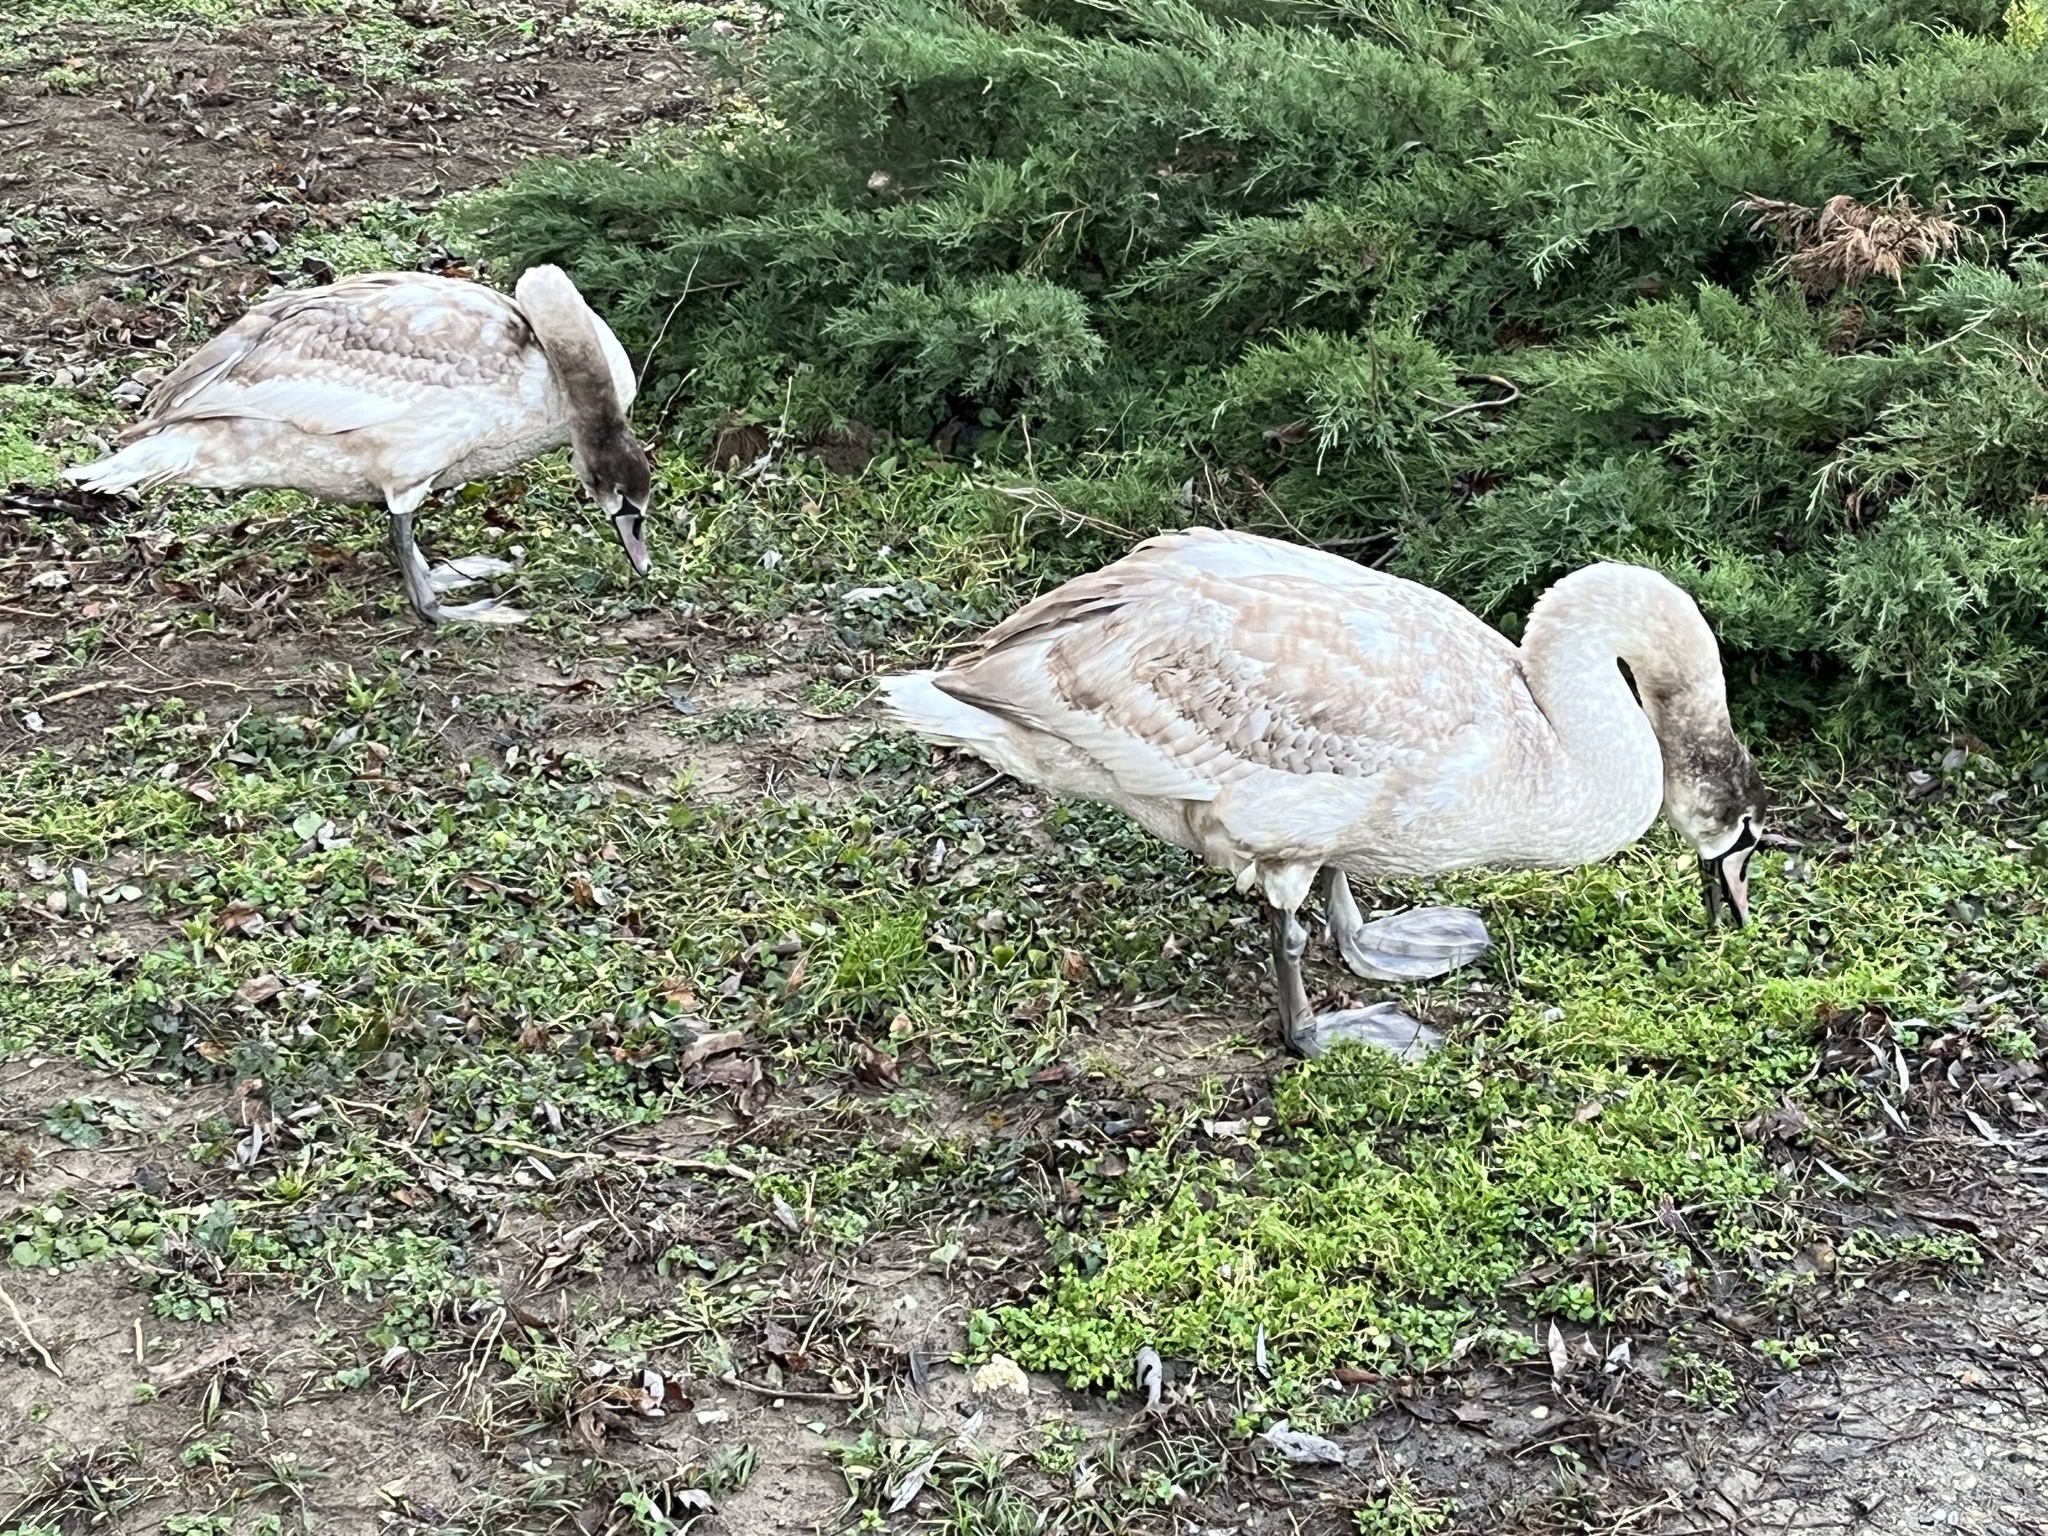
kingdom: Animalia
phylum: Chordata
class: Aves
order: Anseriformes
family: Anatidae
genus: Cygnus
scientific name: Cygnus olor
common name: Mute swan
